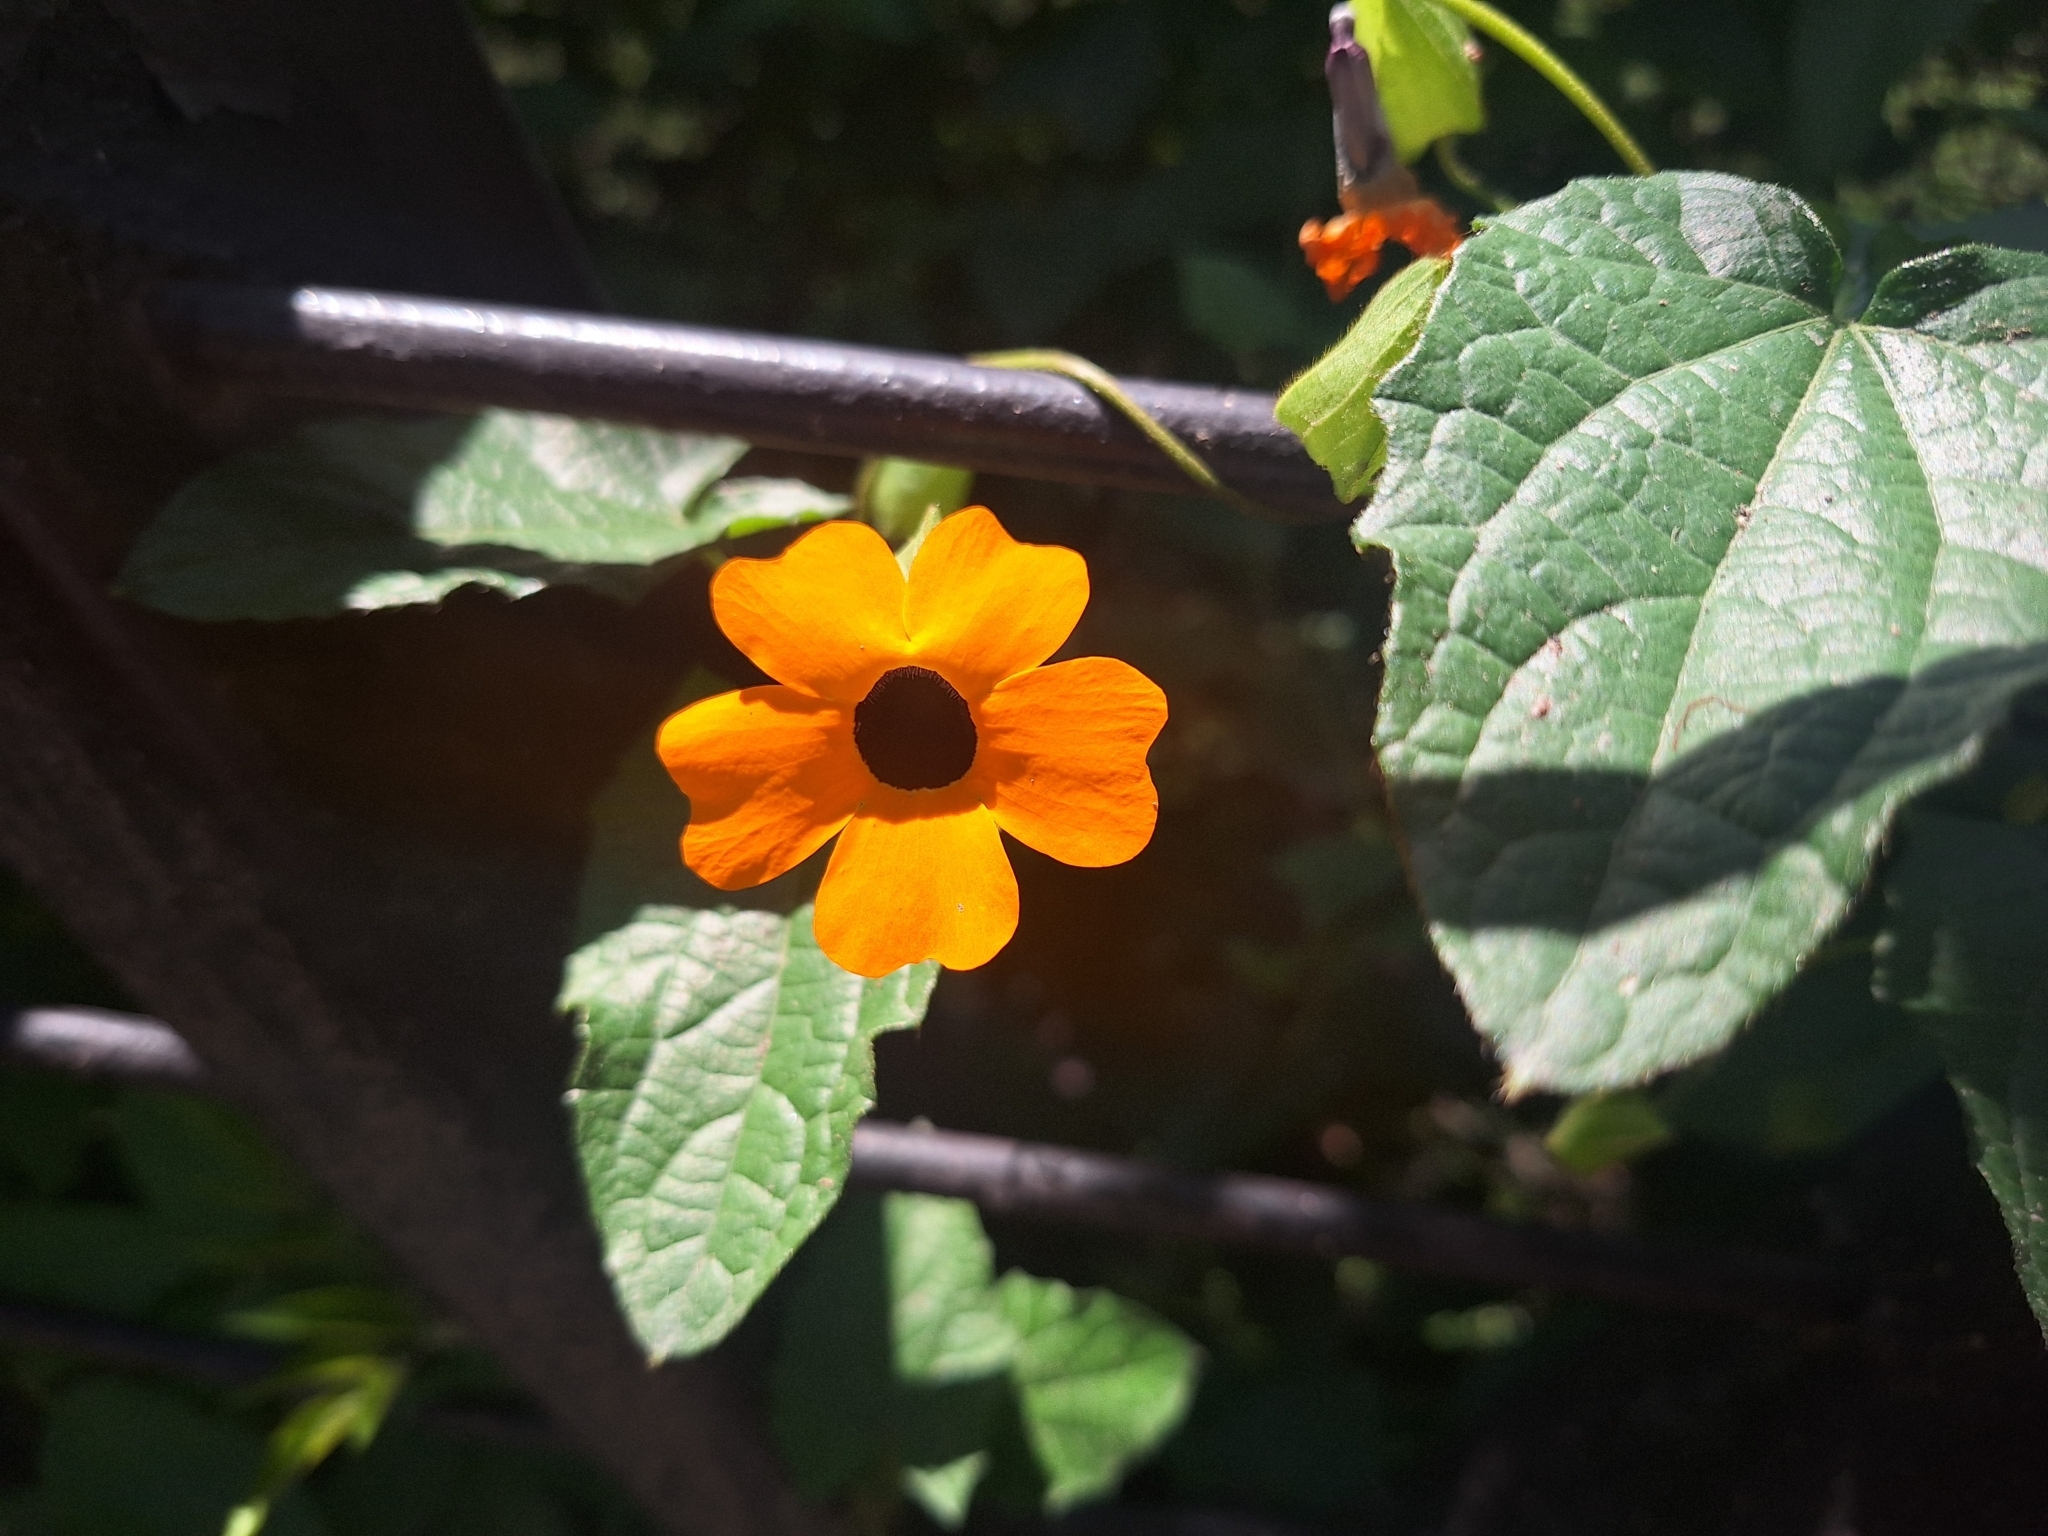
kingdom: Plantae
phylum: Tracheophyta
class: Magnoliopsida
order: Lamiales
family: Acanthaceae
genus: Thunbergia
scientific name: Thunbergia alata
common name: Blackeyed susan vine
